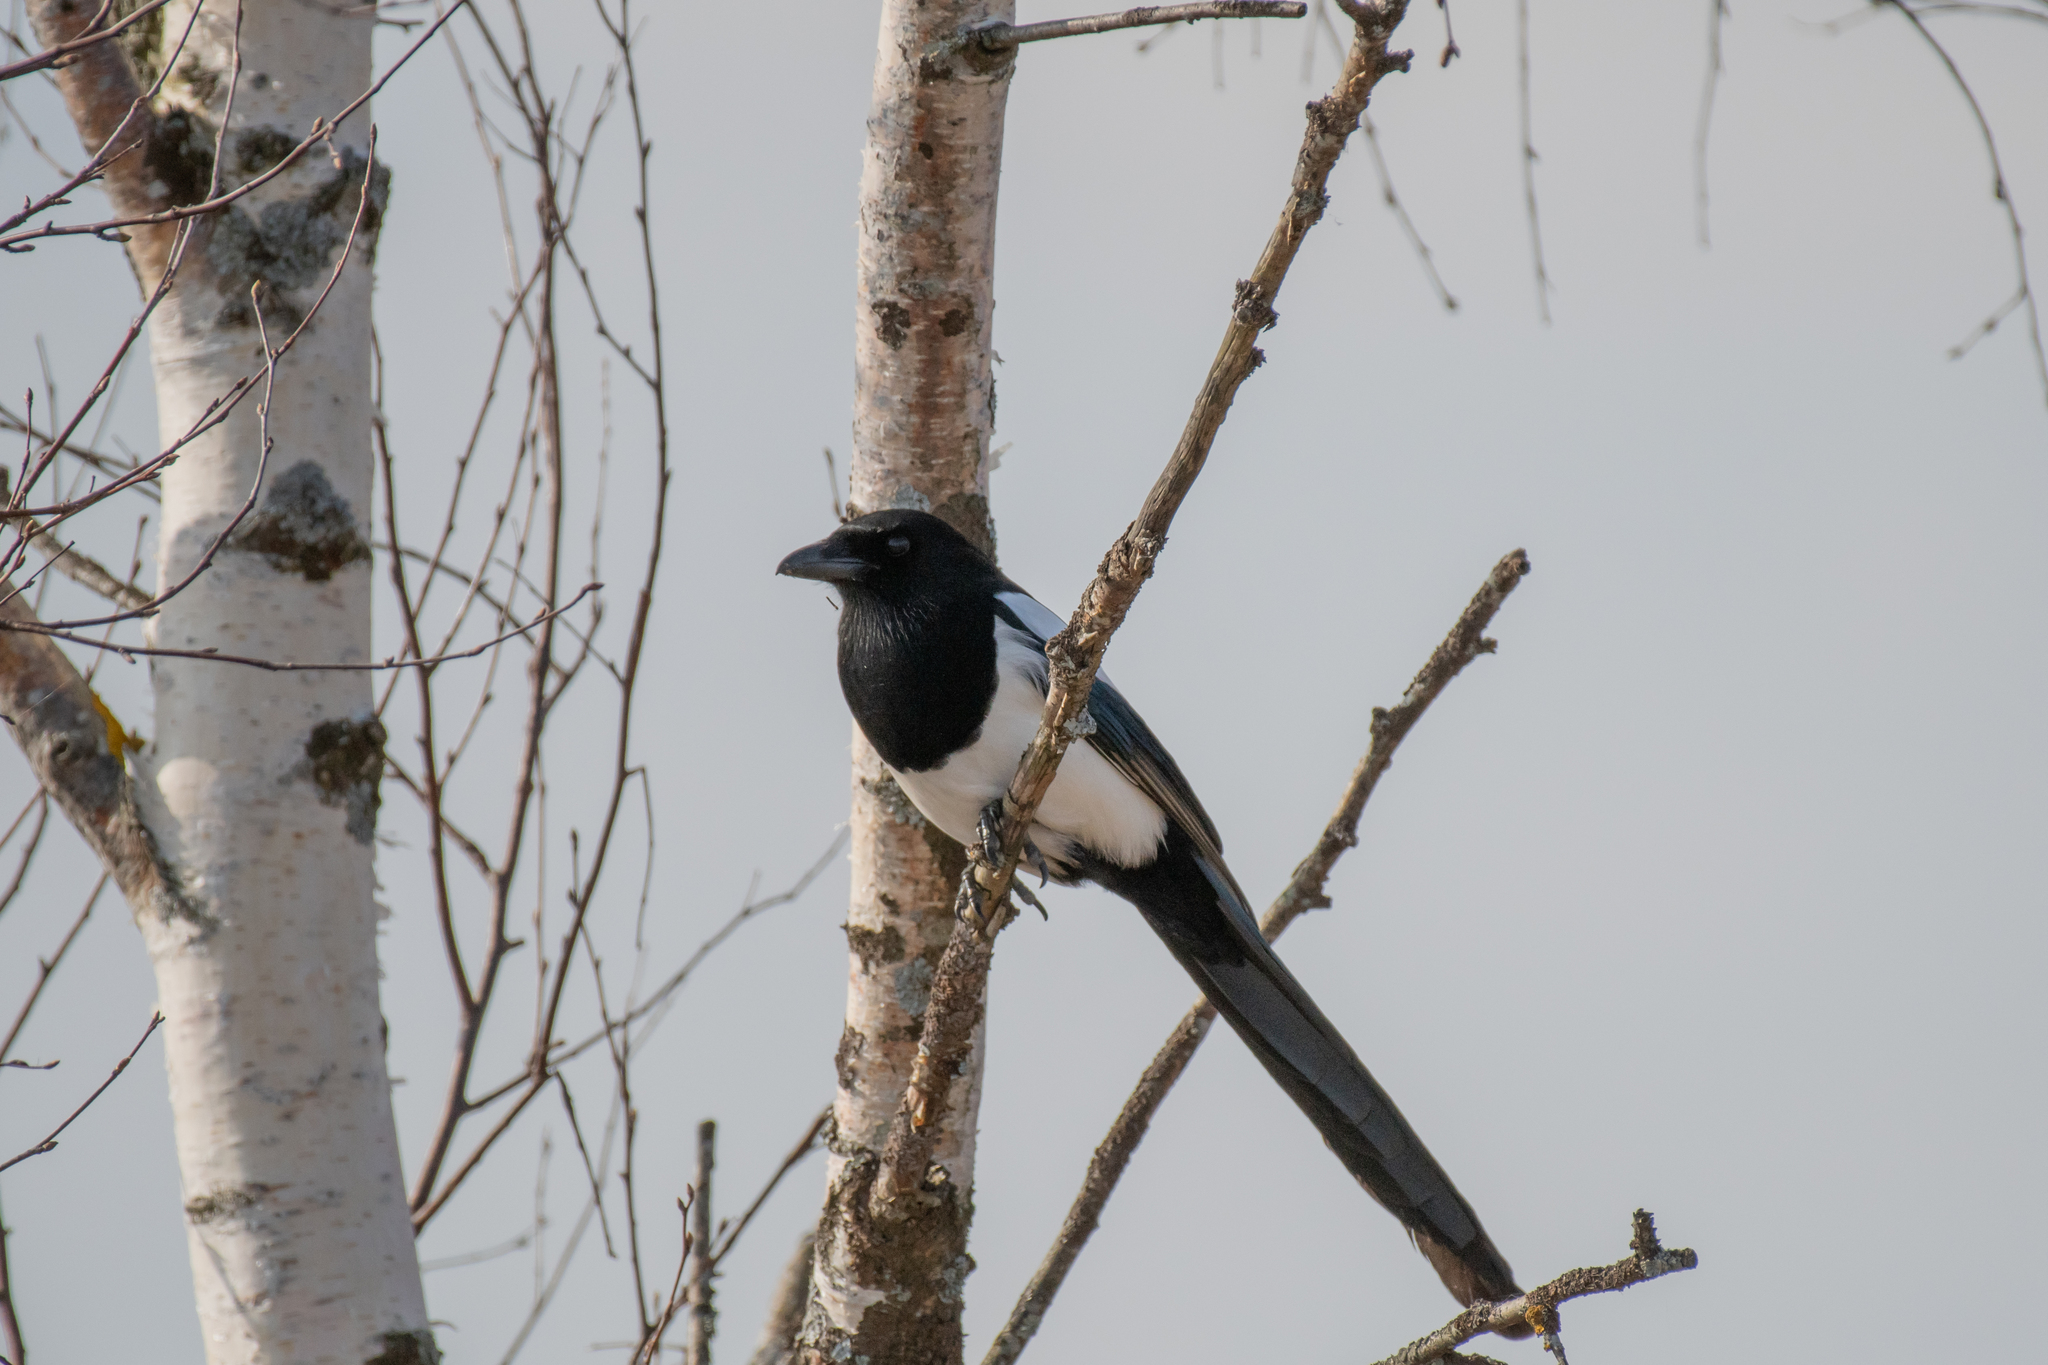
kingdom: Animalia
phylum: Chordata
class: Aves
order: Passeriformes
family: Corvidae
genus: Pica
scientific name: Pica pica
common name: Eurasian magpie
